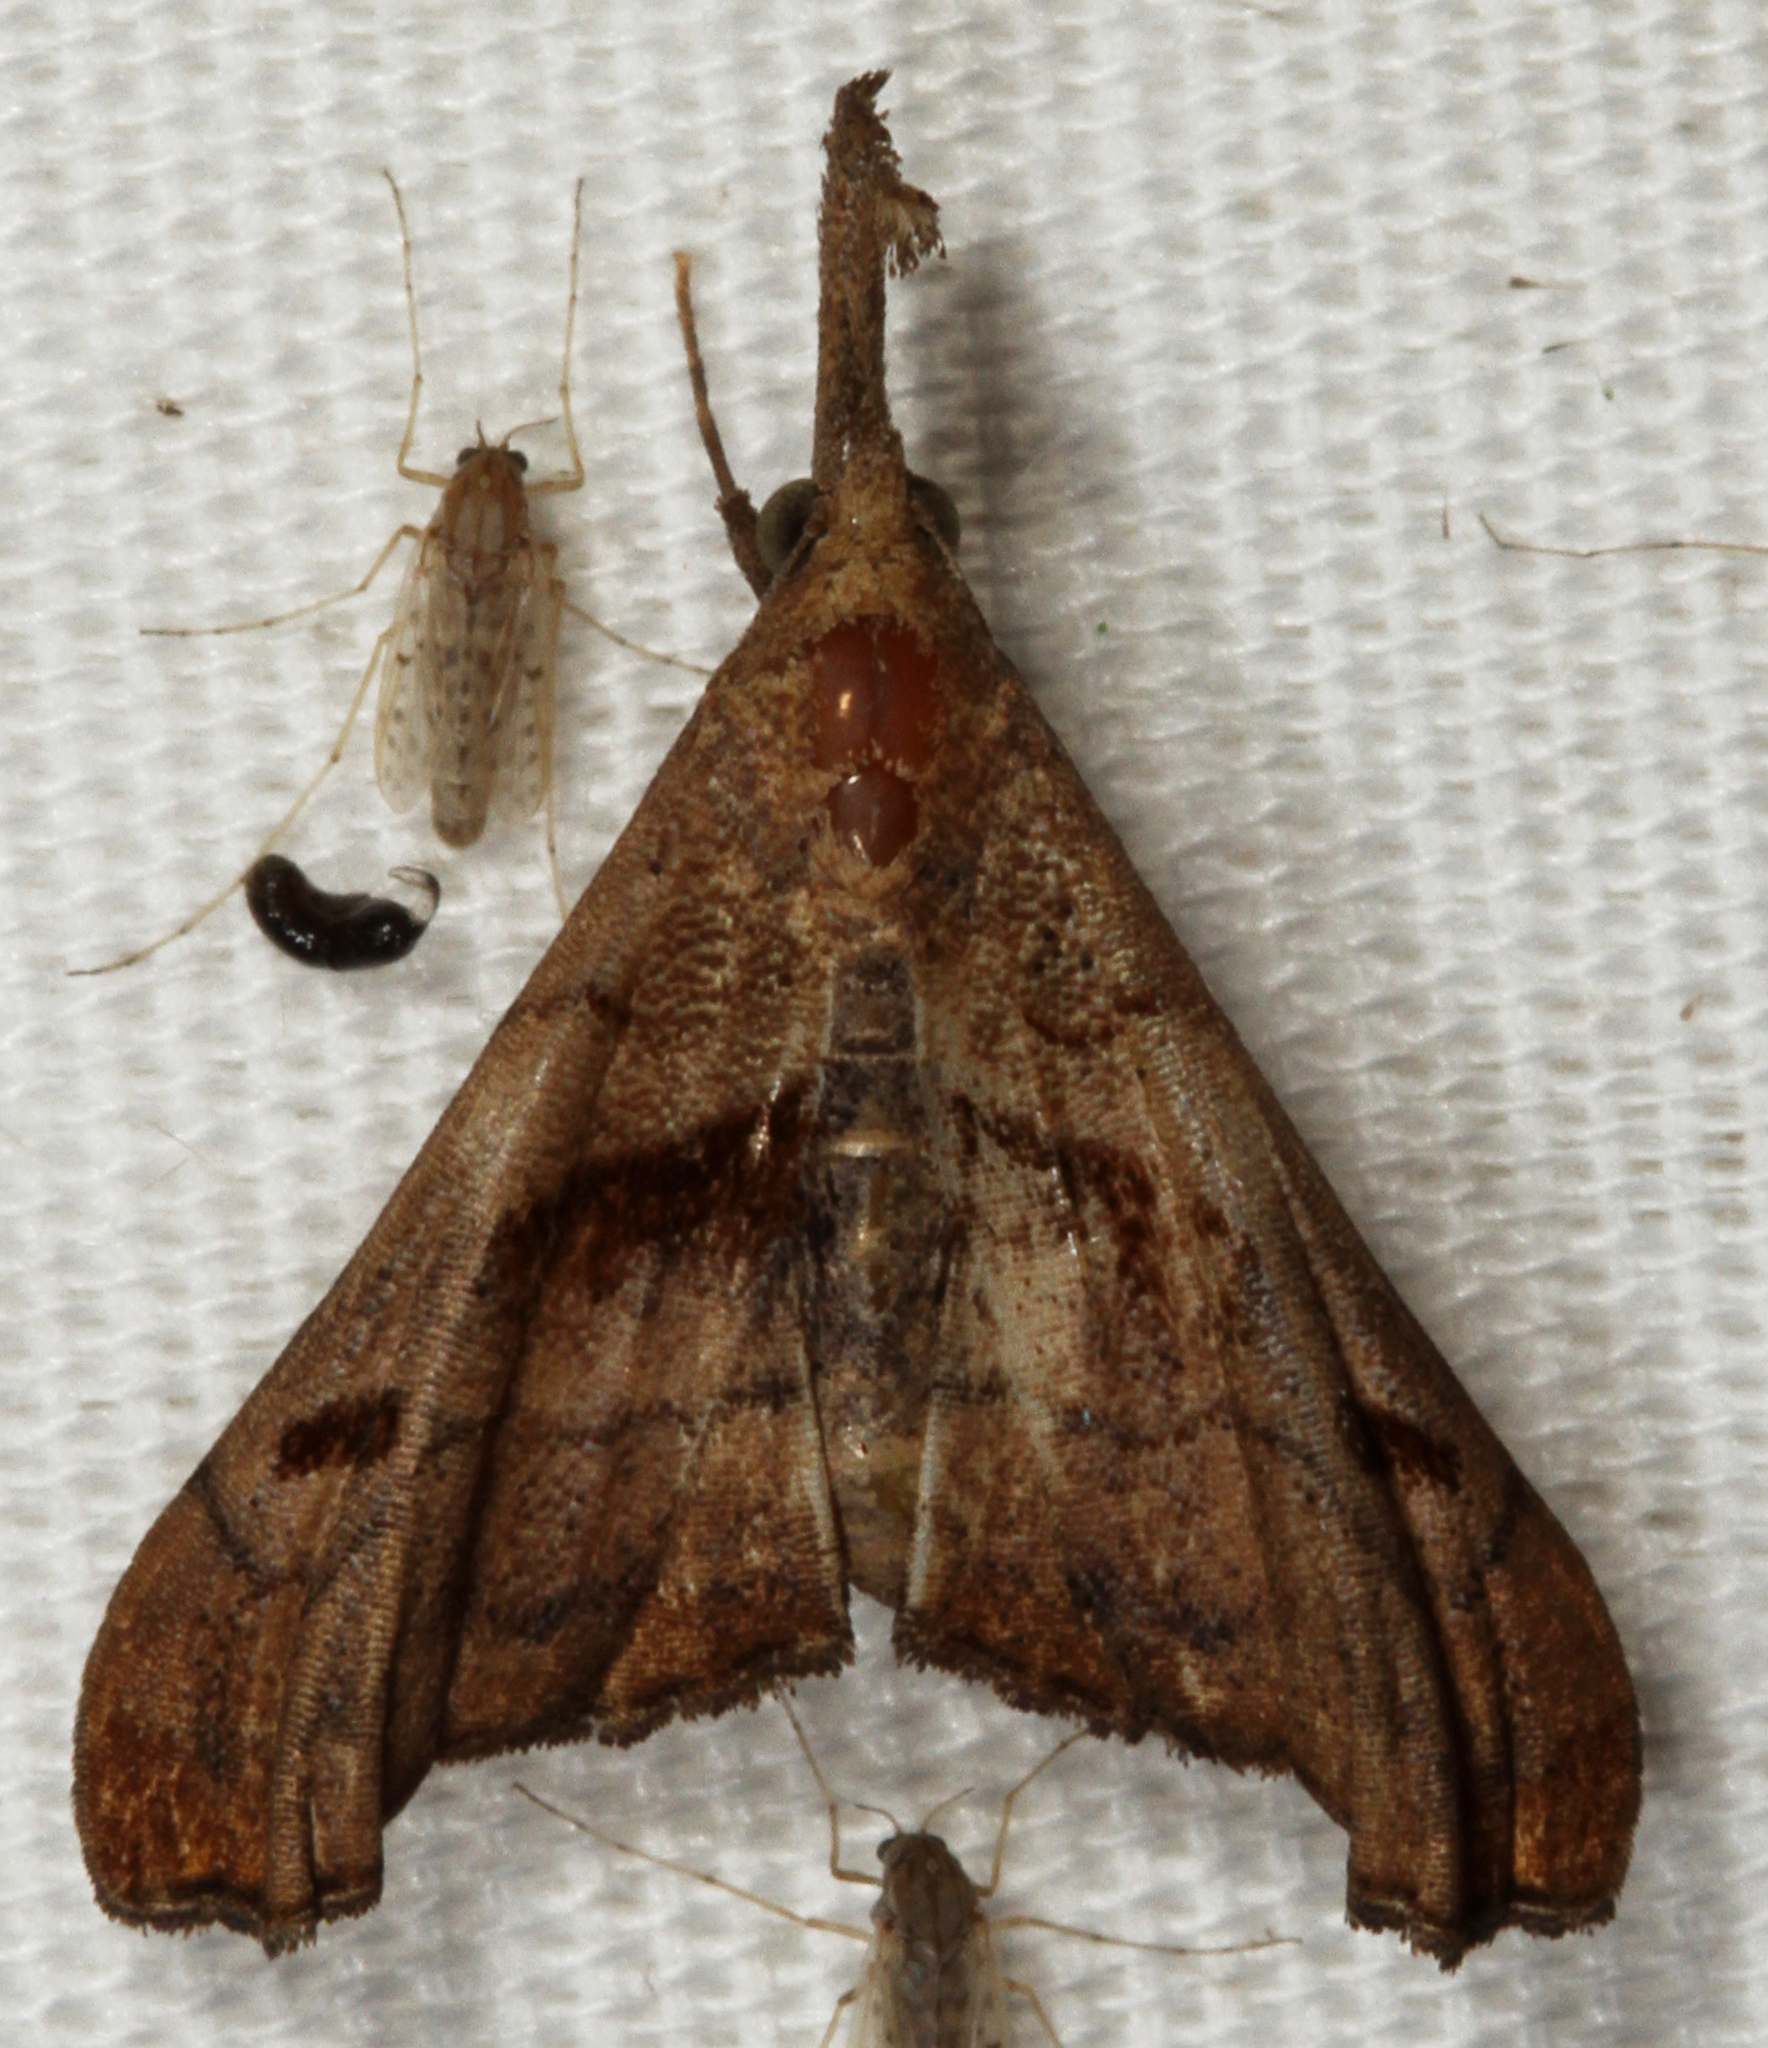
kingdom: Animalia
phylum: Arthropoda
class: Insecta
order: Lepidoptera
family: Erebidae
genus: Palthis
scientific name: Palthis angulalis
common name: Dark-spotted palthis moth
